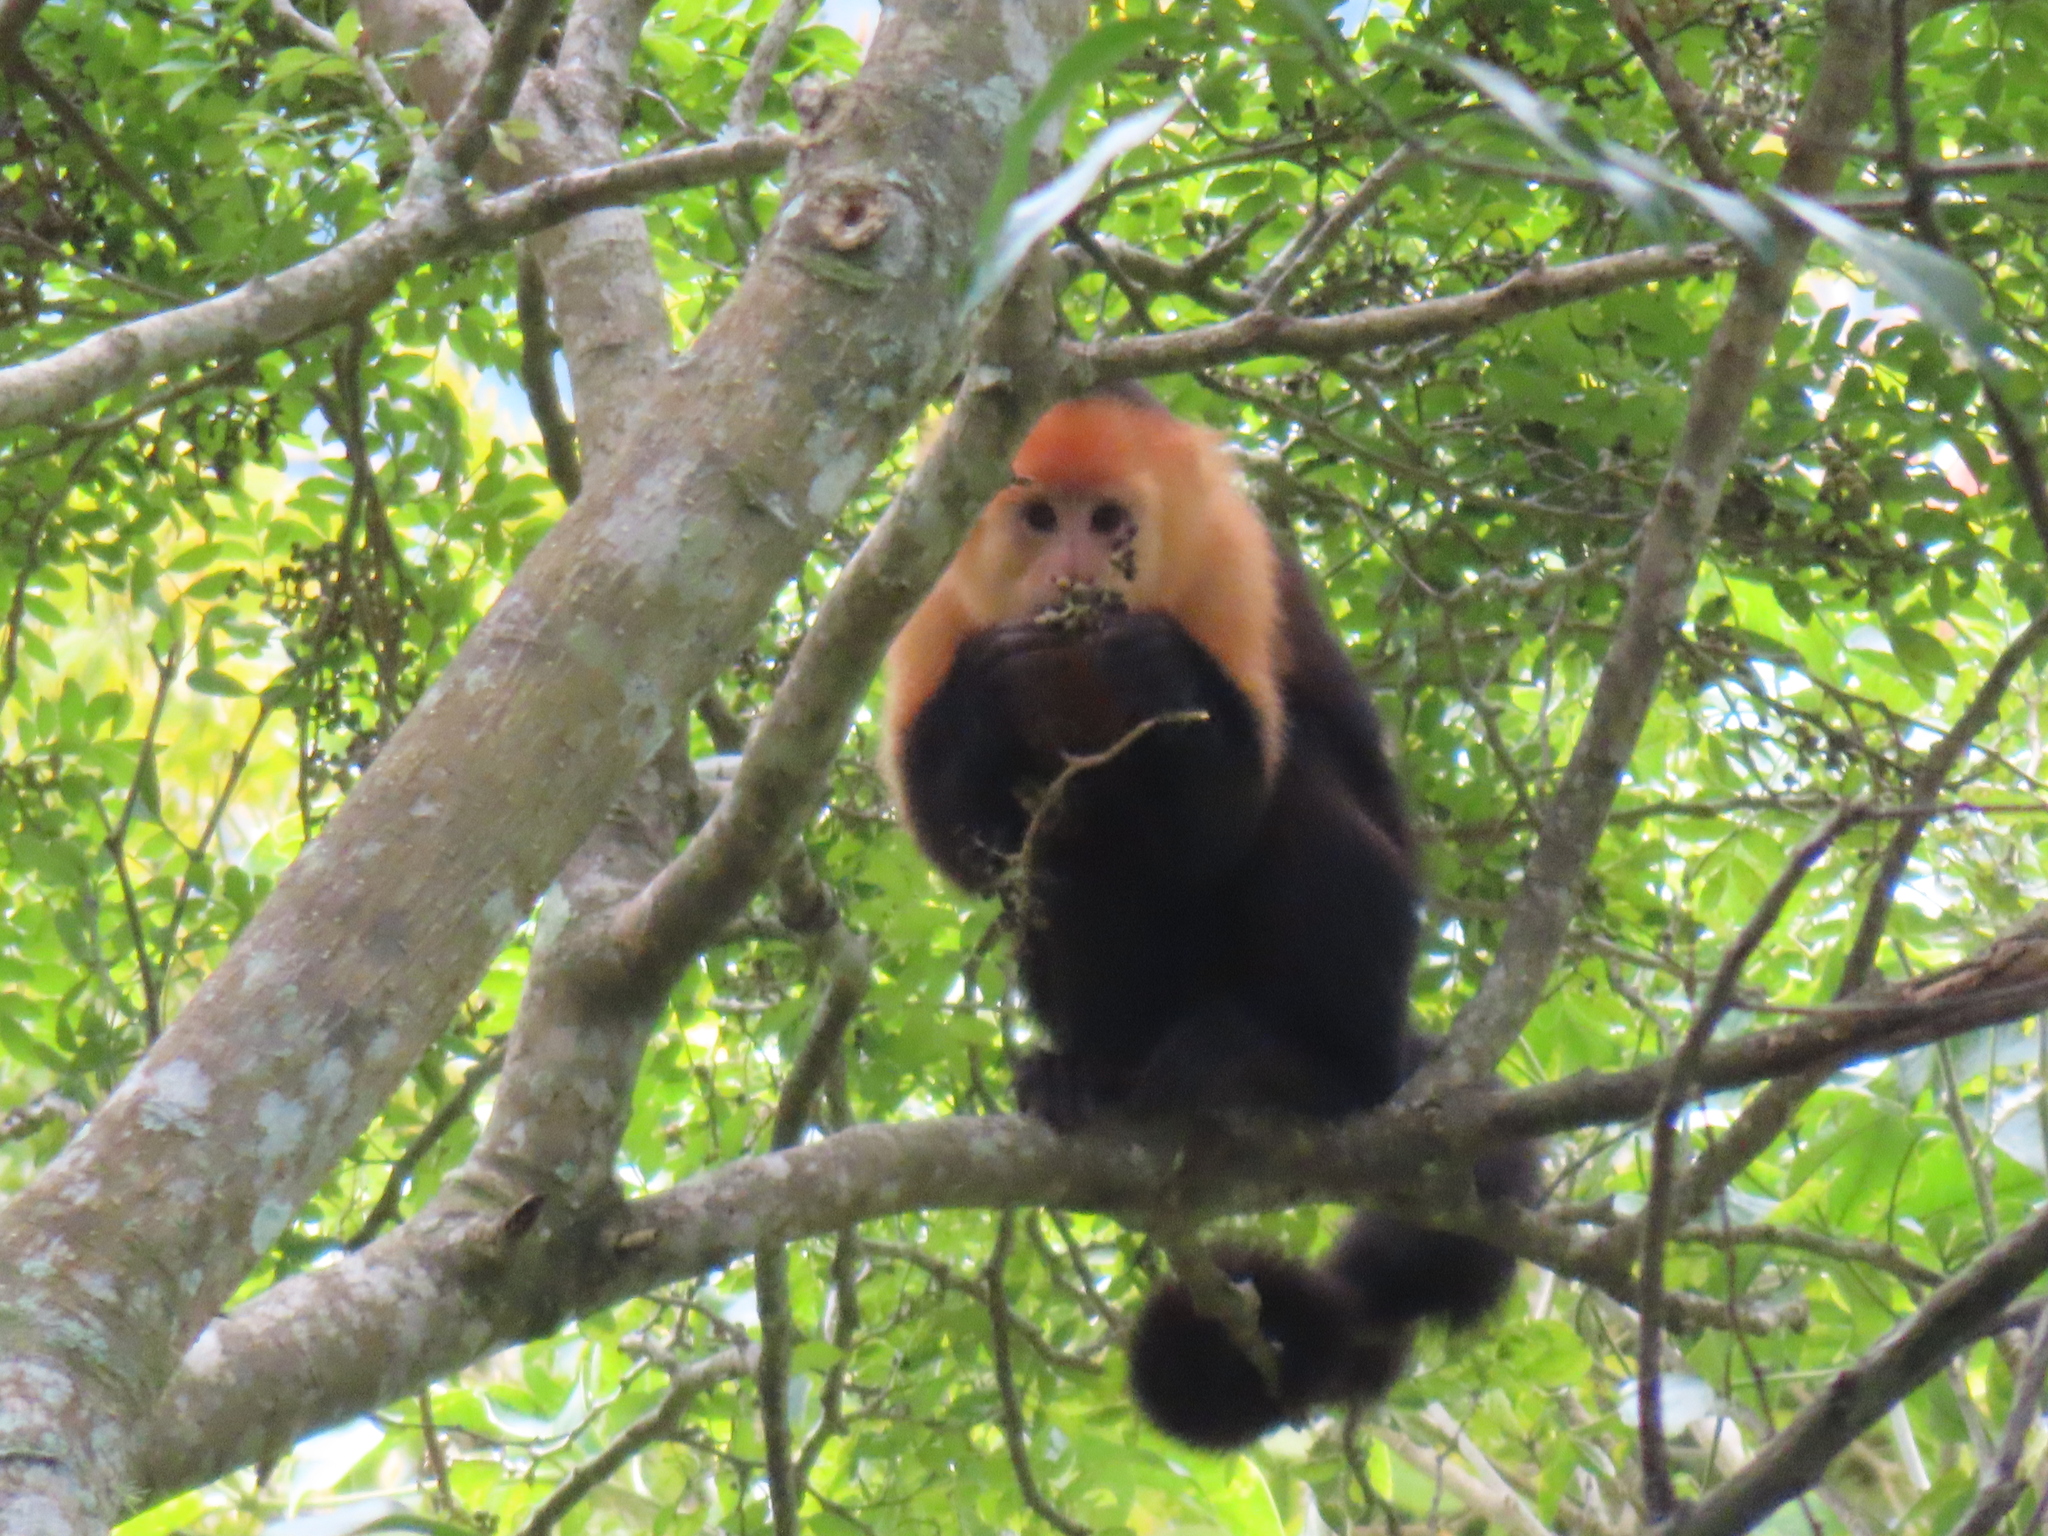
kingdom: Animalia
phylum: Chordata
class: Mammalia
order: Primates
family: Cebidae
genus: Cebus
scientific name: Cebus imitator
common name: Panamanian white-faced capuchin
